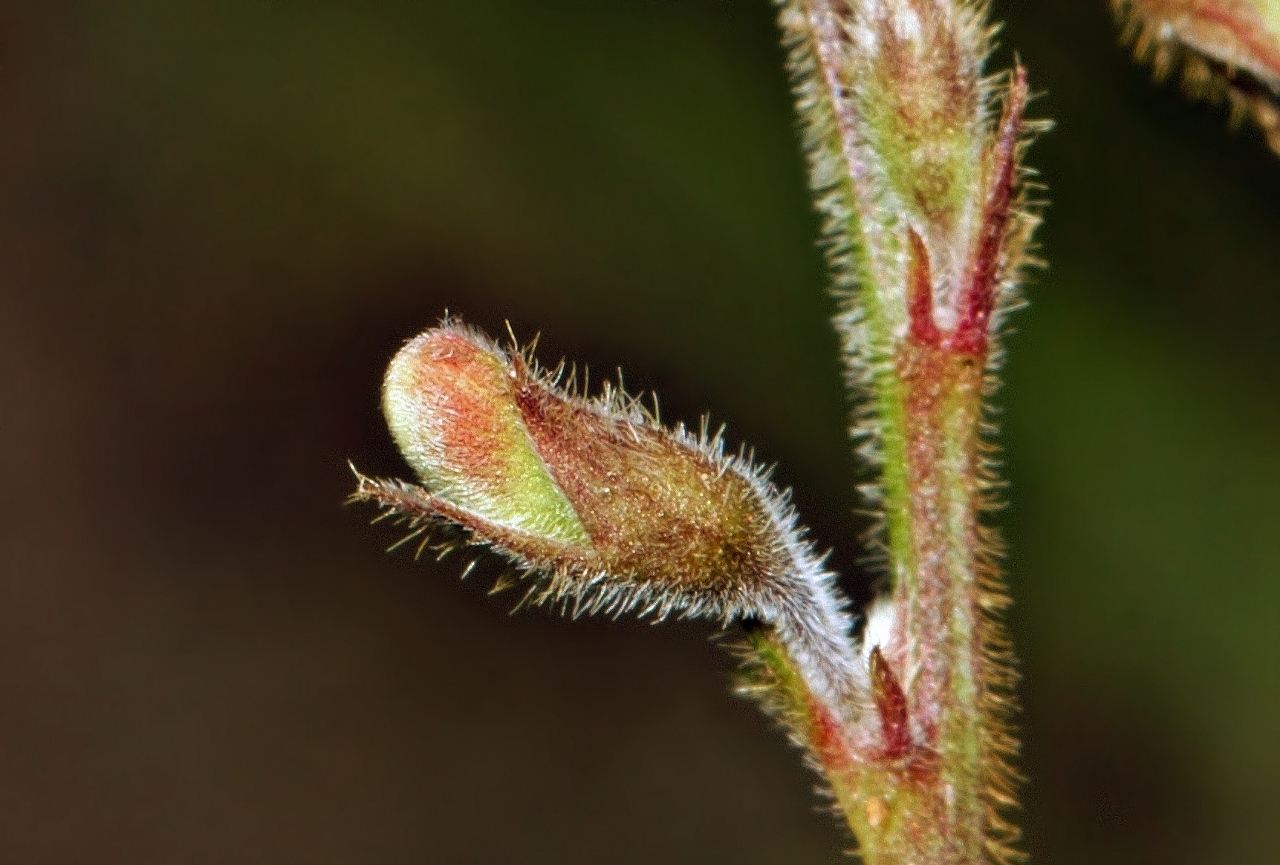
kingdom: Plantae
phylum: Tracheophyta
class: Magnoliopsida
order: Fabales
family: Fabaceae
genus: Tephrosia
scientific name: Tephrosia purpurea
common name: Fishpoison
